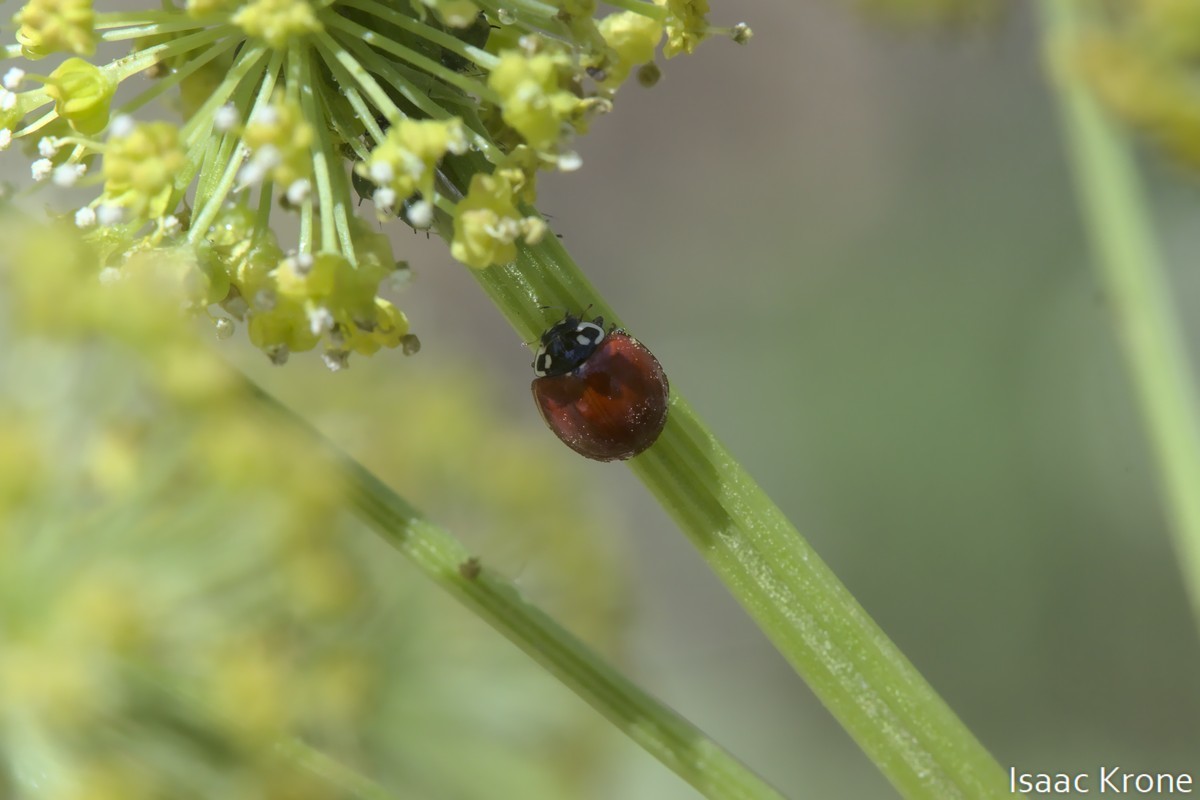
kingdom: Animalia
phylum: Arthropoda
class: Insecta
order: Coleoptera
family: Coccinellidae
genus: Cycloneda
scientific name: Cycloneda sanguinea
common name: Ladybird beetle
